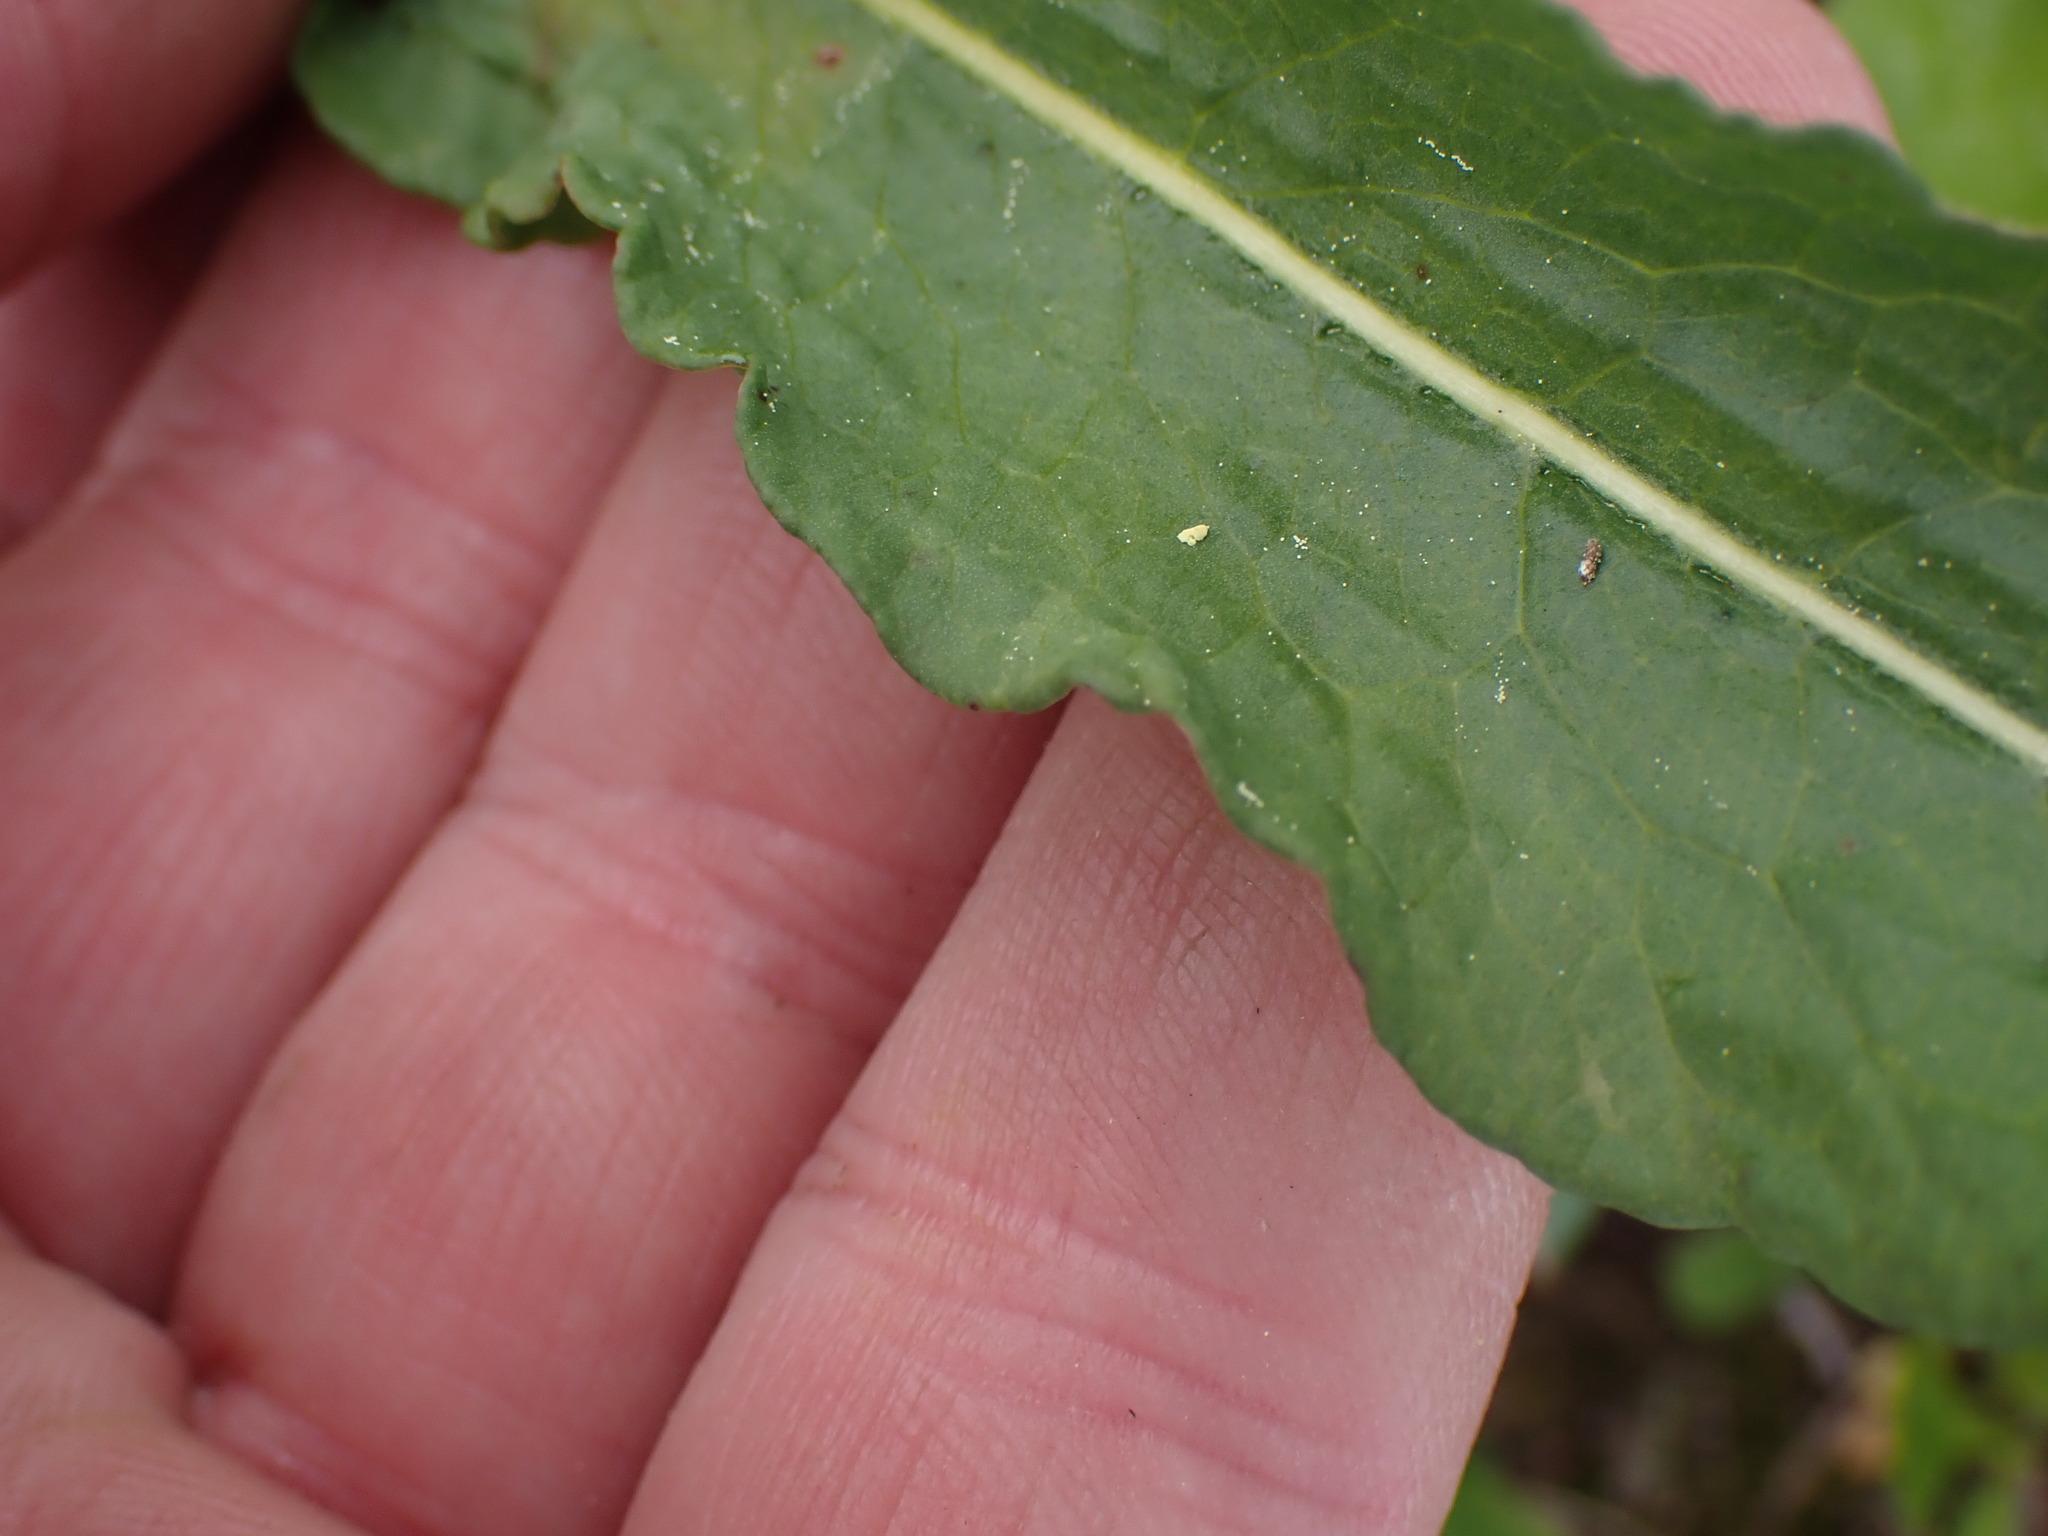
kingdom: Plantae
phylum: Tracheophyta
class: Magnoliopsida
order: Caryophyllales
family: Polygonaceae
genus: Bistorta
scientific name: Bistorta bistortoides
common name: American bistort
